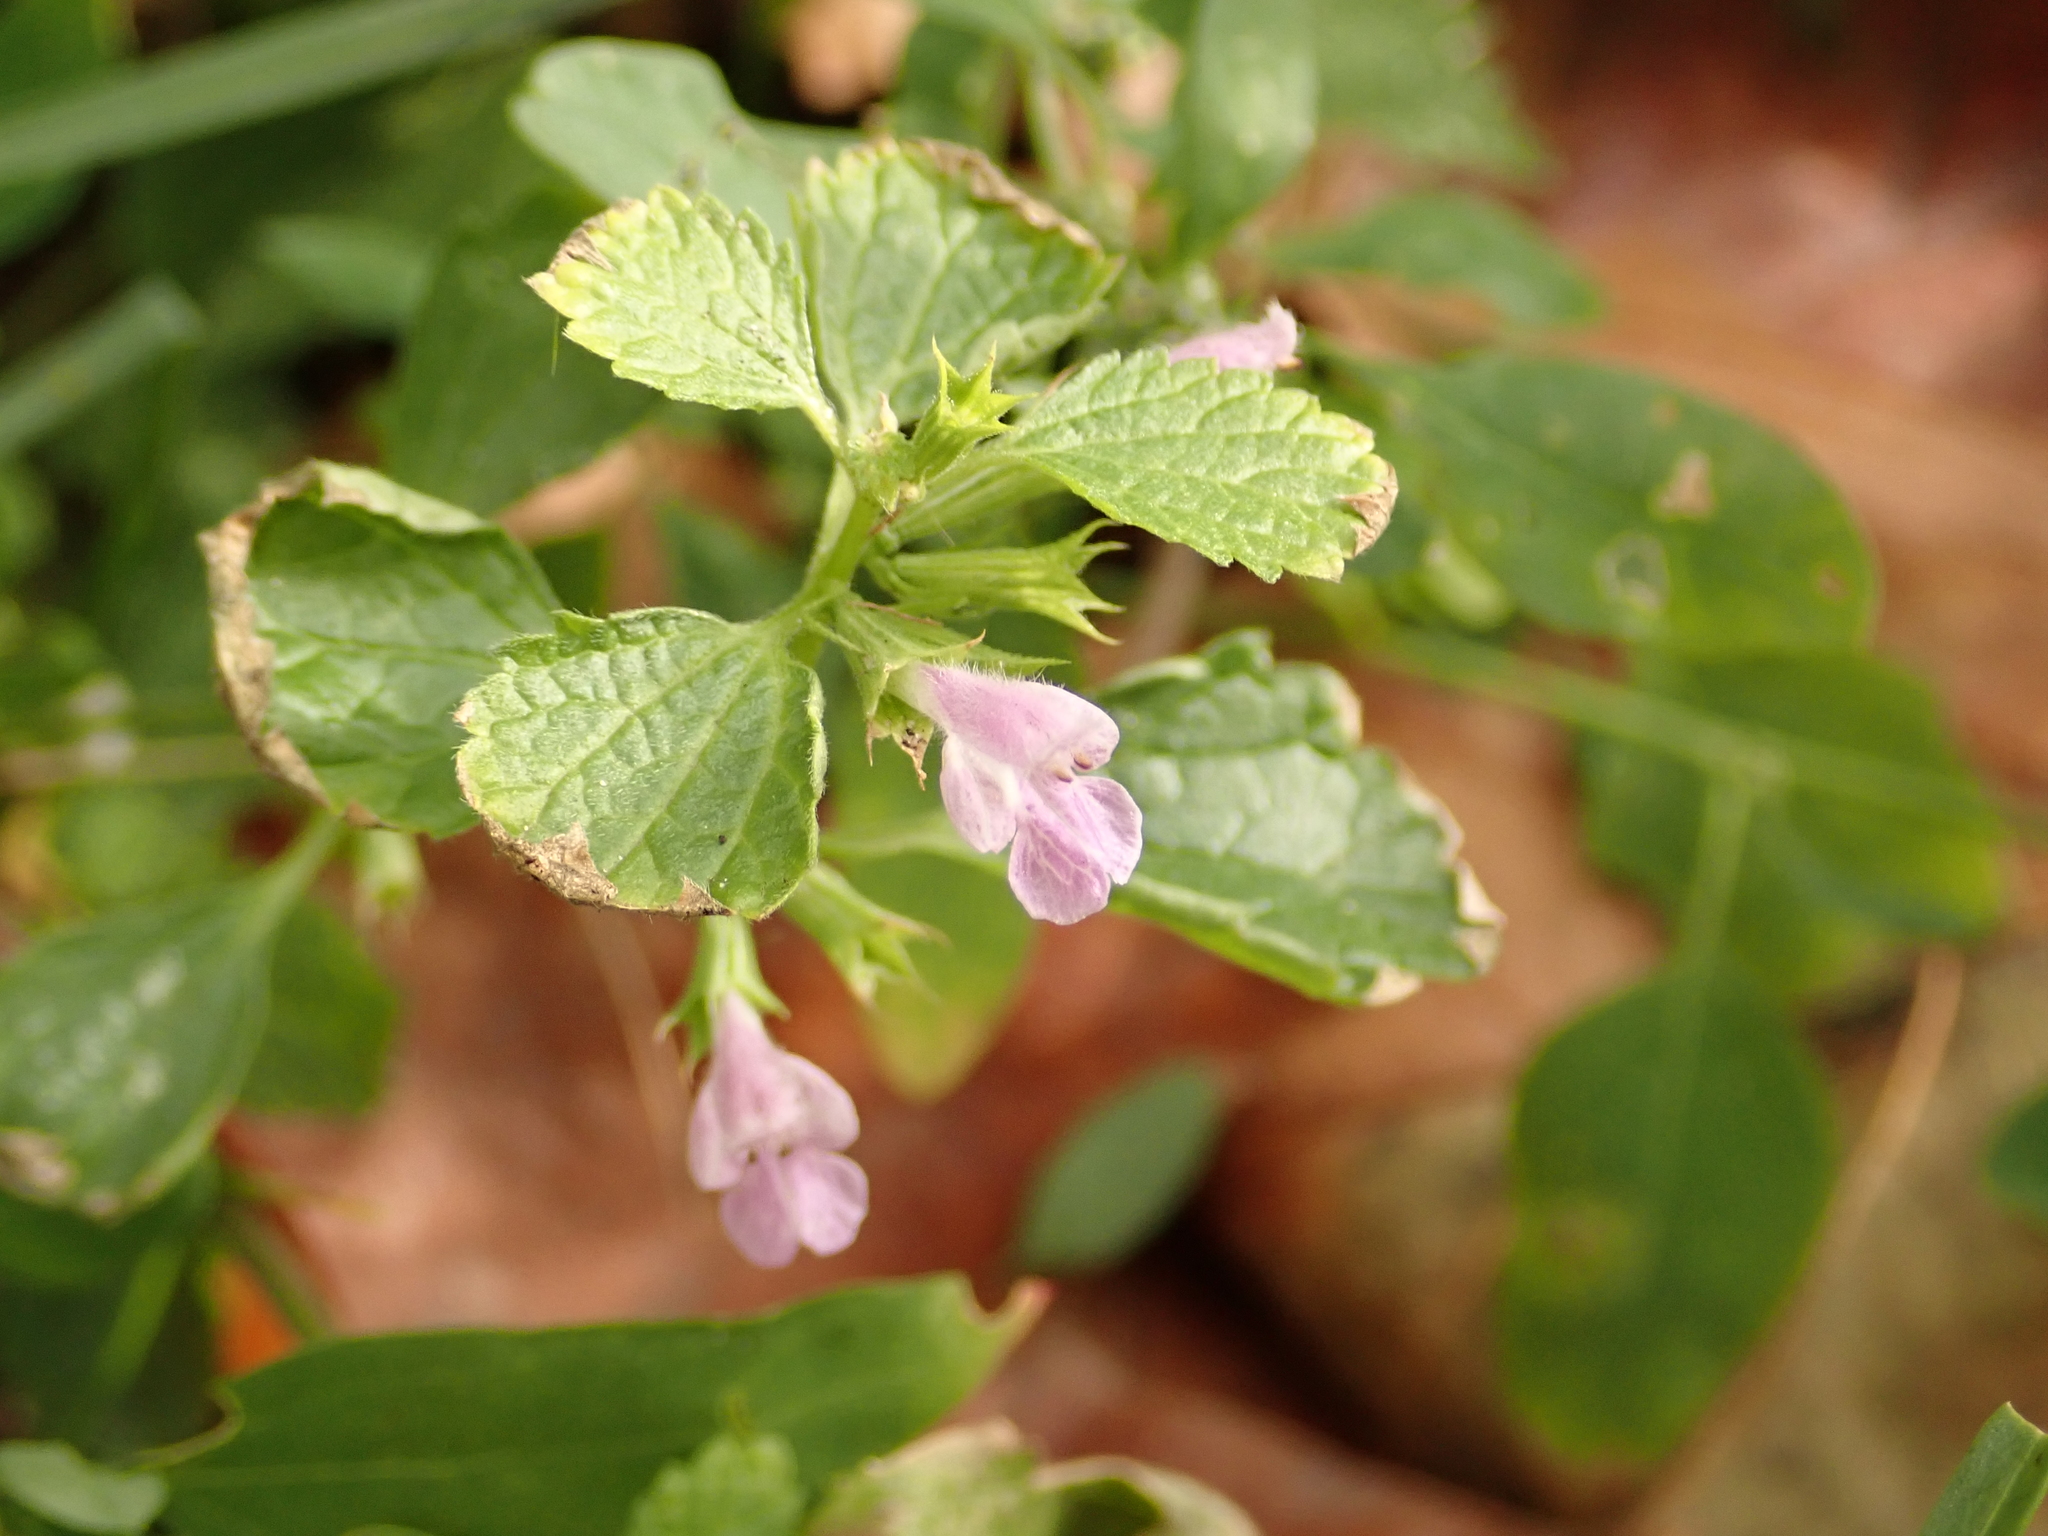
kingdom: Plantae
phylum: Tracheophyta
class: Magnoliopsida
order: Lamiales
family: Lamiaceae
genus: Ballota
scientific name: Ballota nigra
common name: Black horehound
